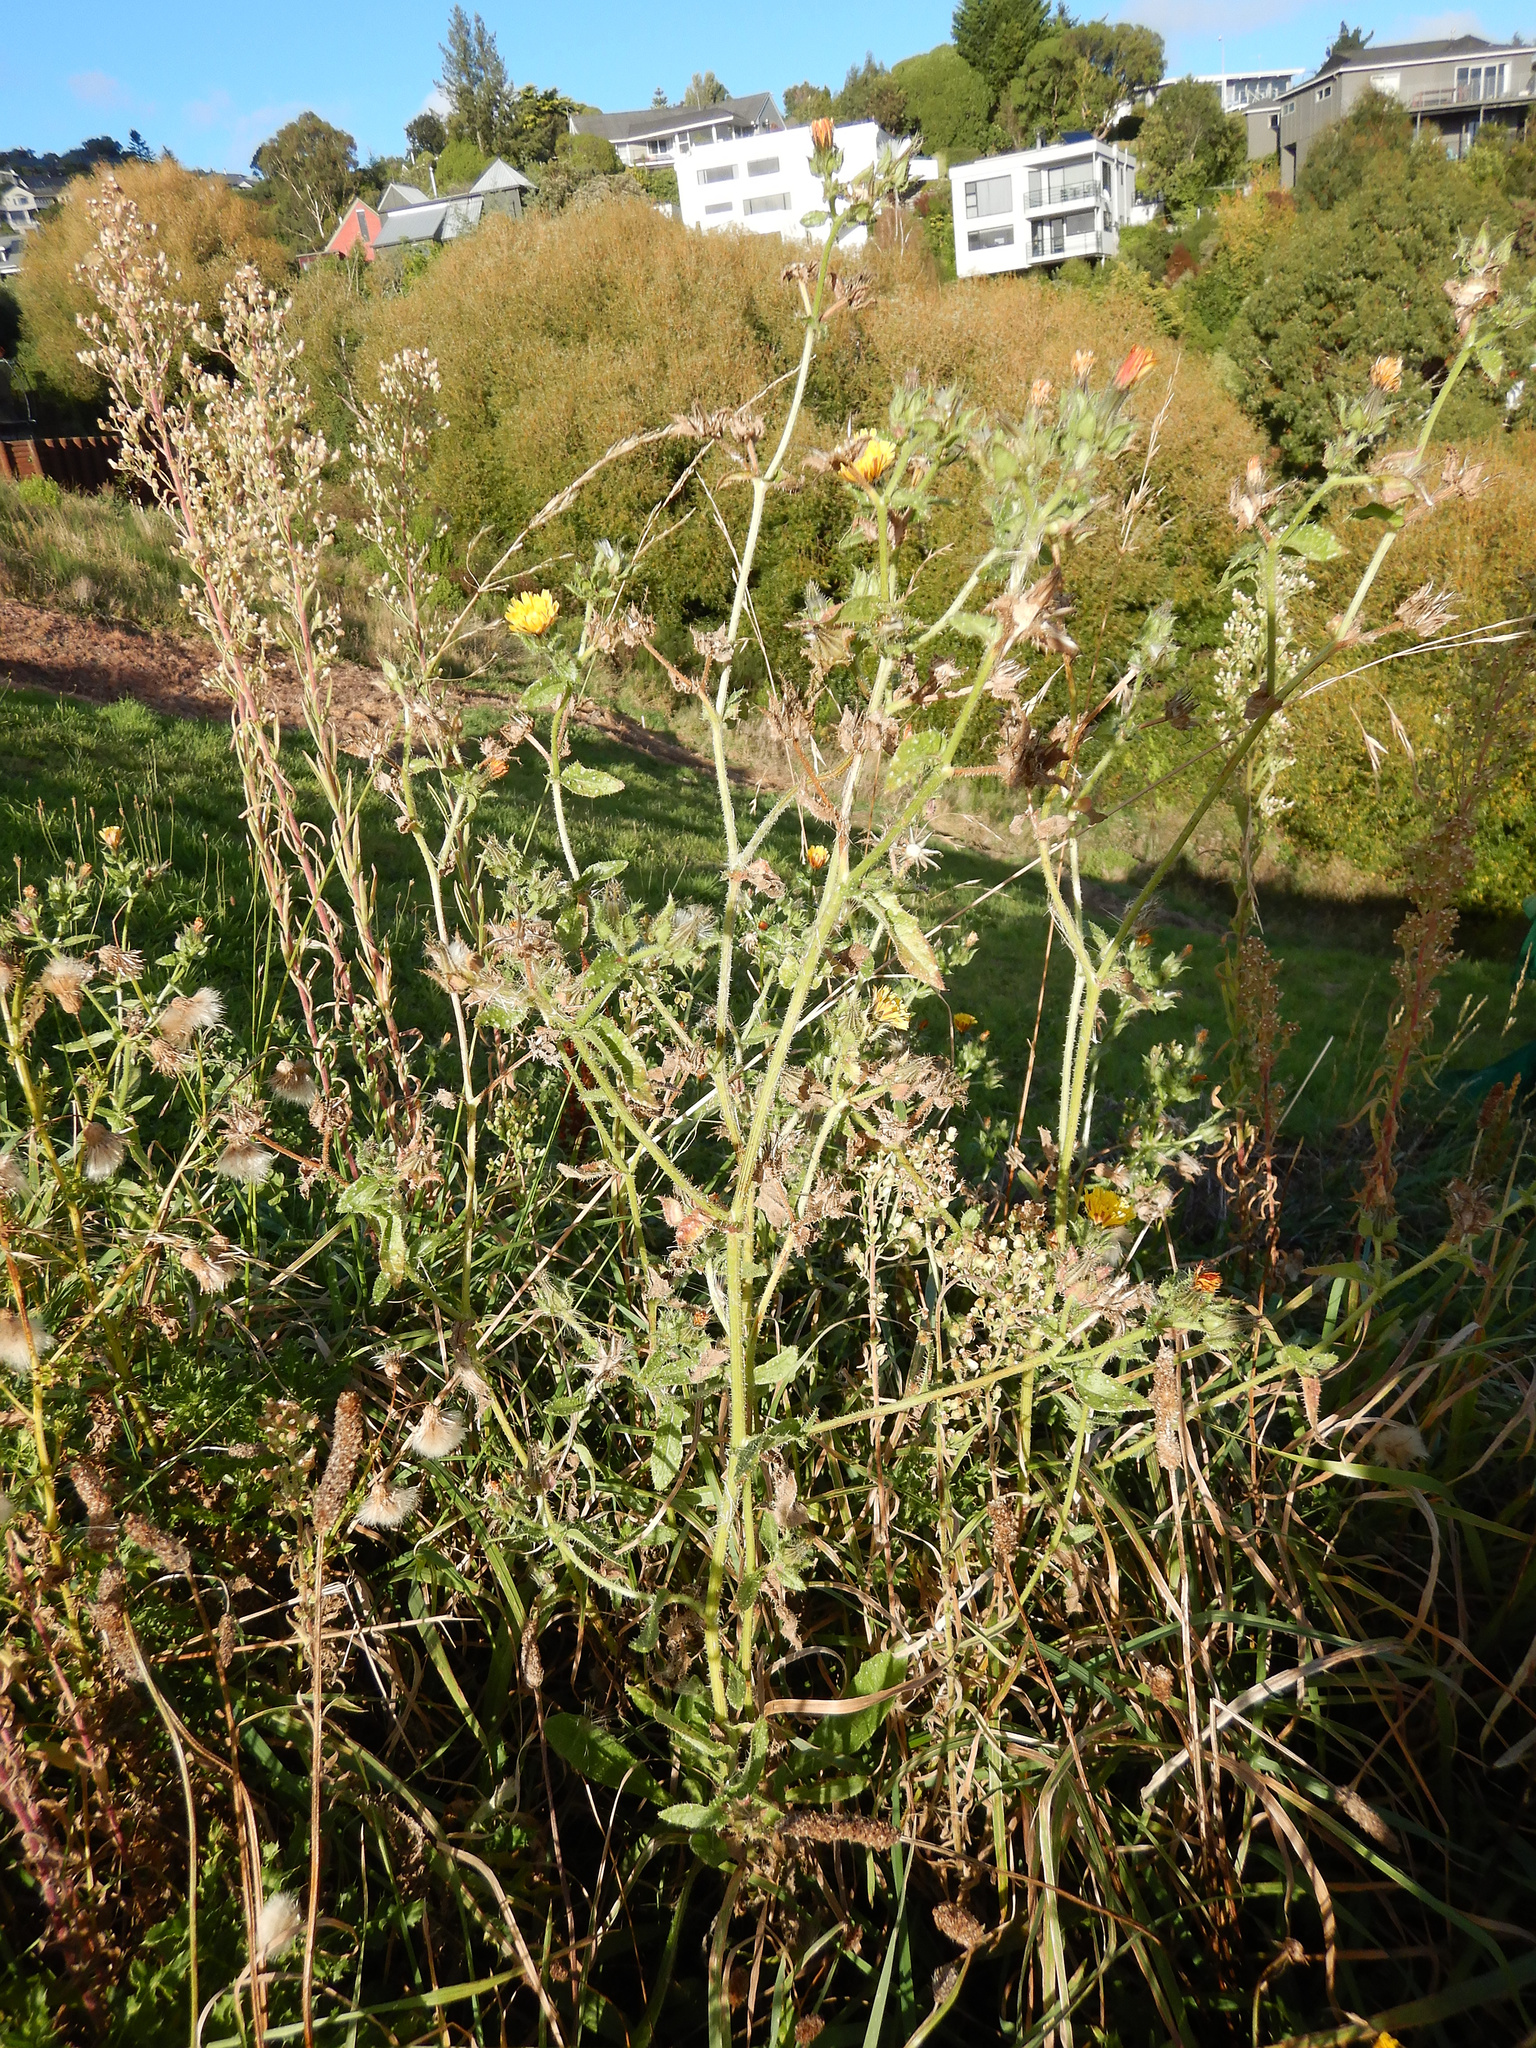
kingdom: Plantae
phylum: Tracheophyta
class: Magnoliopsida
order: Asterales
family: Asteraceae
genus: Helminthotheca
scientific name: Helminthotheca echioides
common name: Ox-tongue
